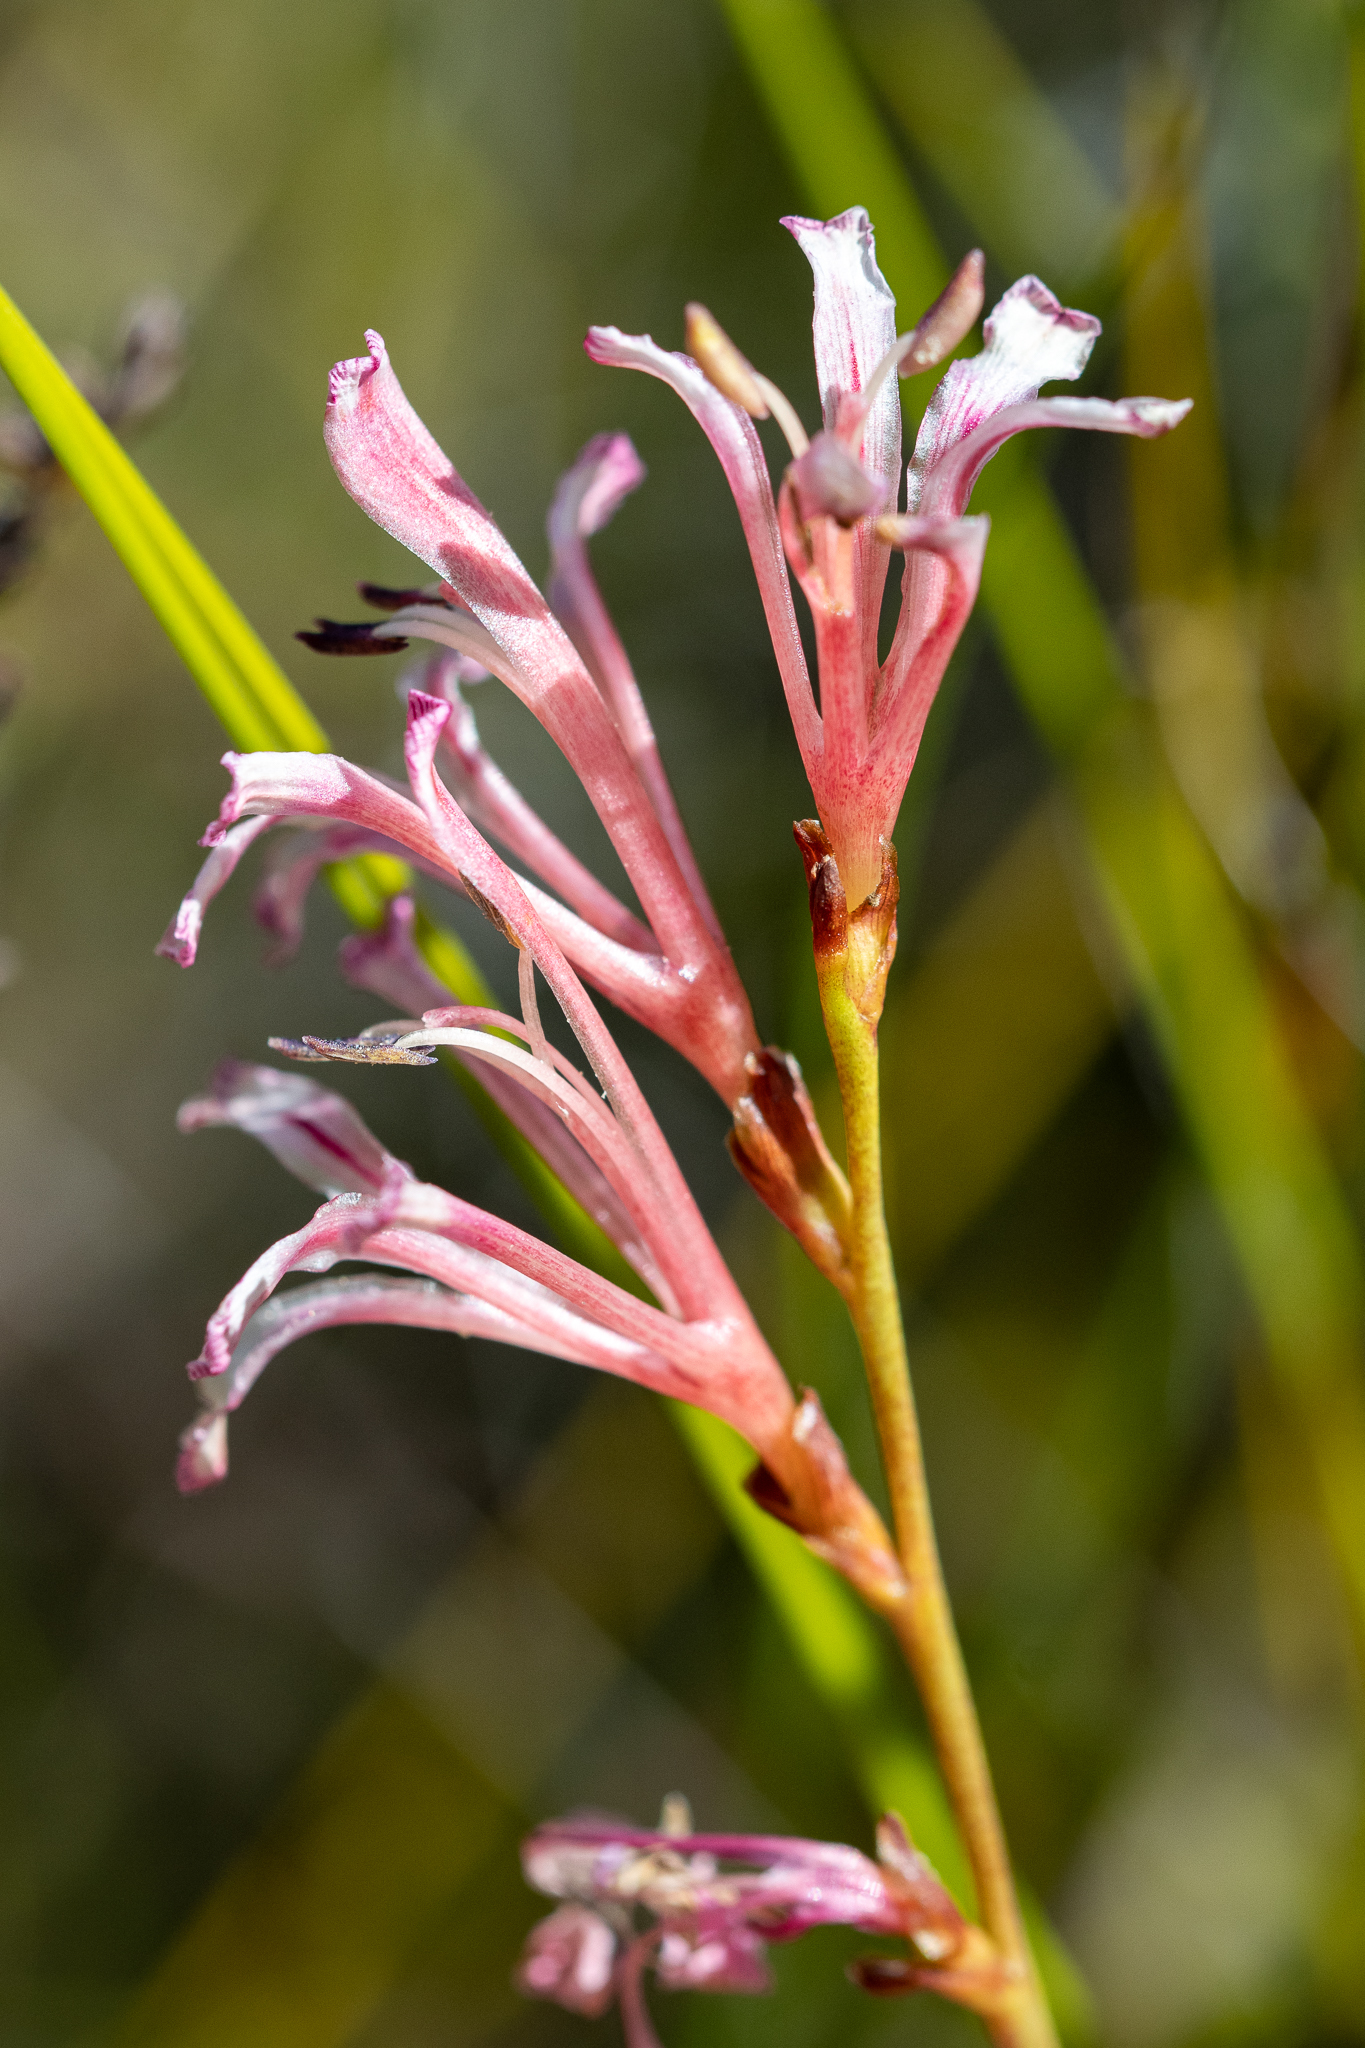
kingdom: Plantae
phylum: Tracheophyta
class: Liliopsida
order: Asparagales
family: Iridaceae
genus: Tritoniopsis
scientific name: Tritoniopsis dodii
